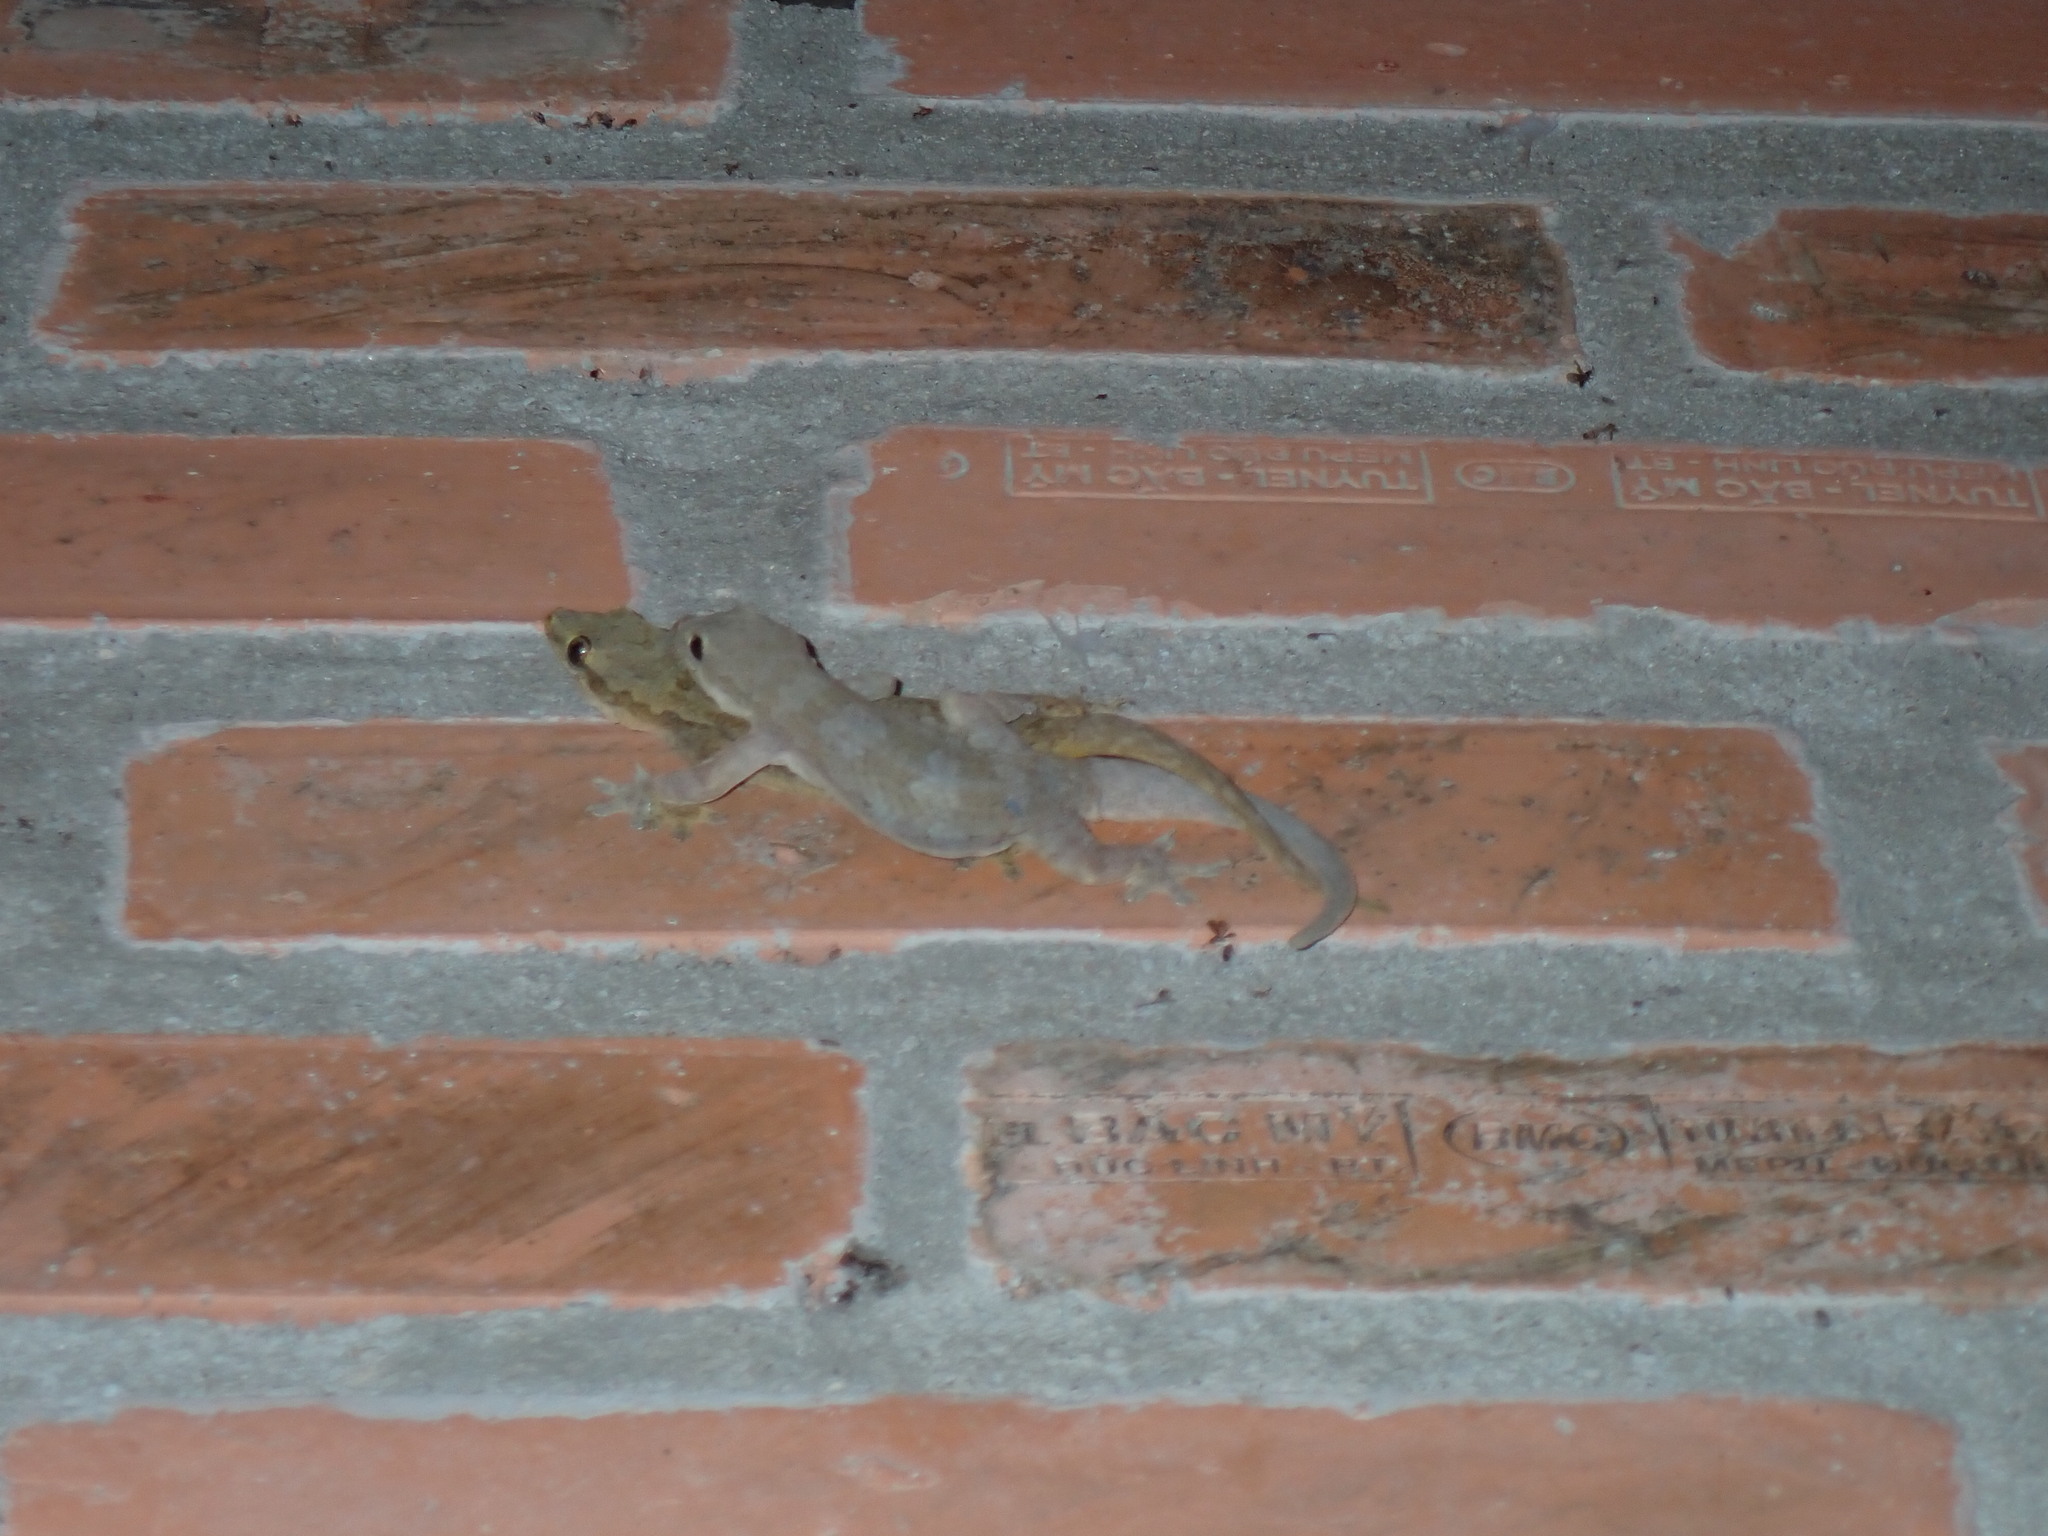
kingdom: Animalia
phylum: Chordata
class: Squamata
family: Gekkonidae
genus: Hemidactylus
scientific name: Hemidactylus platyurus
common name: Flat-tailed house gecko
